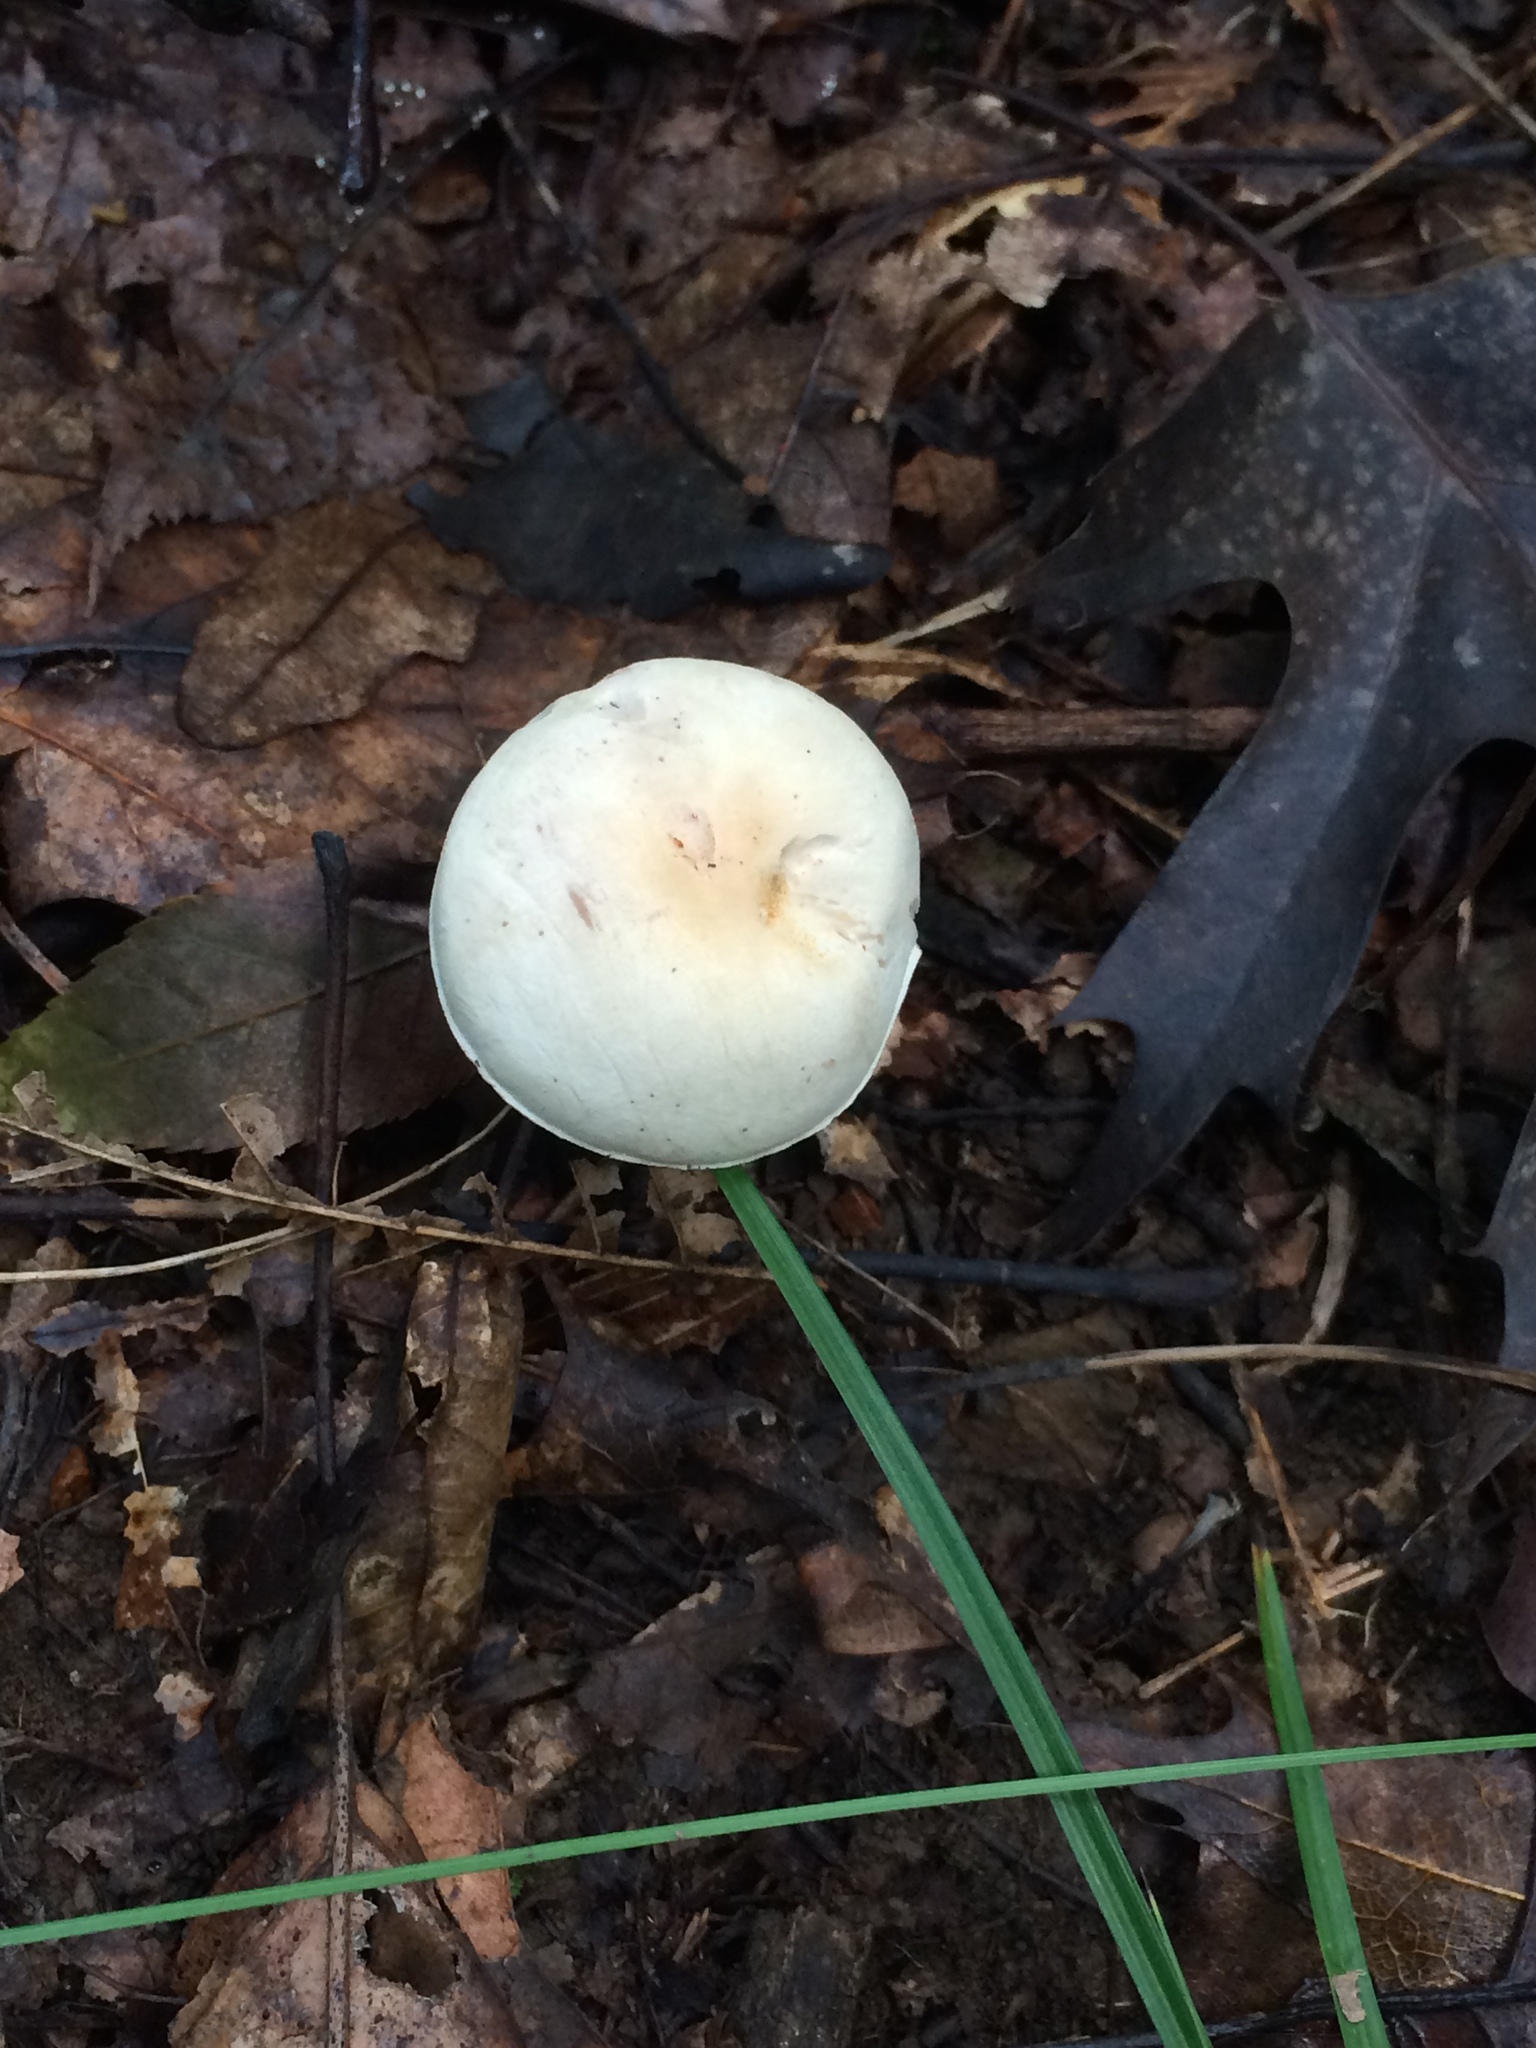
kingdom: Fungi
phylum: Basidiomycota
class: Agaricomycetes
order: Agaricales
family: Tricholomataceae
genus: Tricholoma
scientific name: Tricholoma odorum
